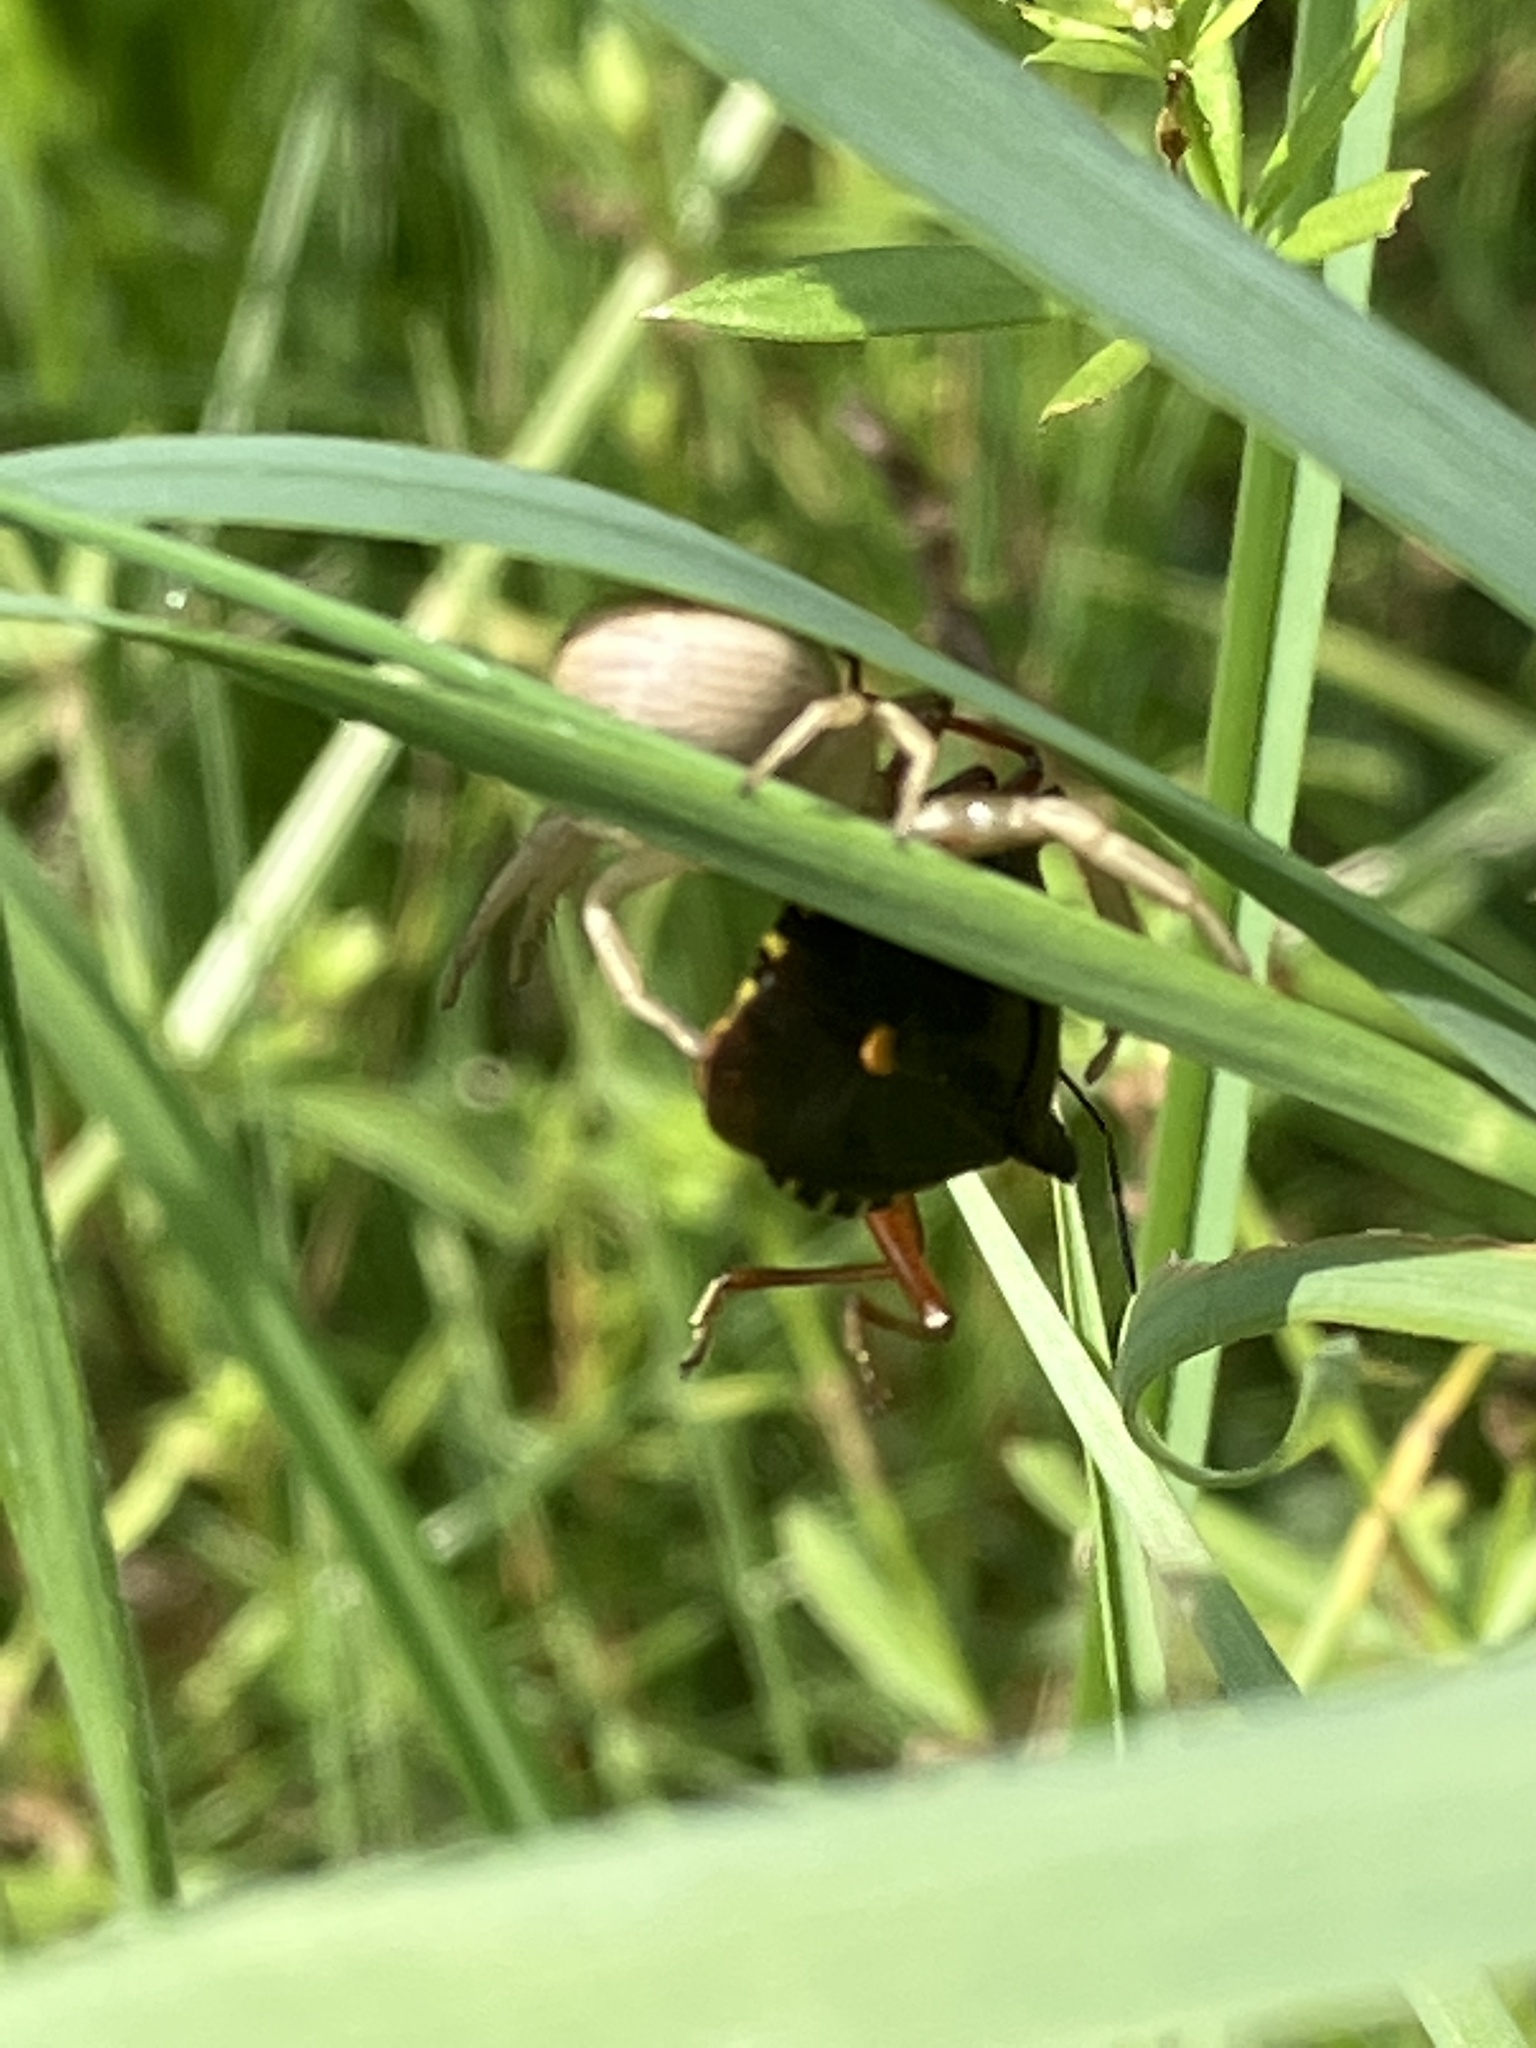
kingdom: Animalia
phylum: Arthropoda
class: Insecta
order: Hemiptera
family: Pentatomidae
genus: Pentatoma
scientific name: Pentatoma rufipes
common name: Forest bug
